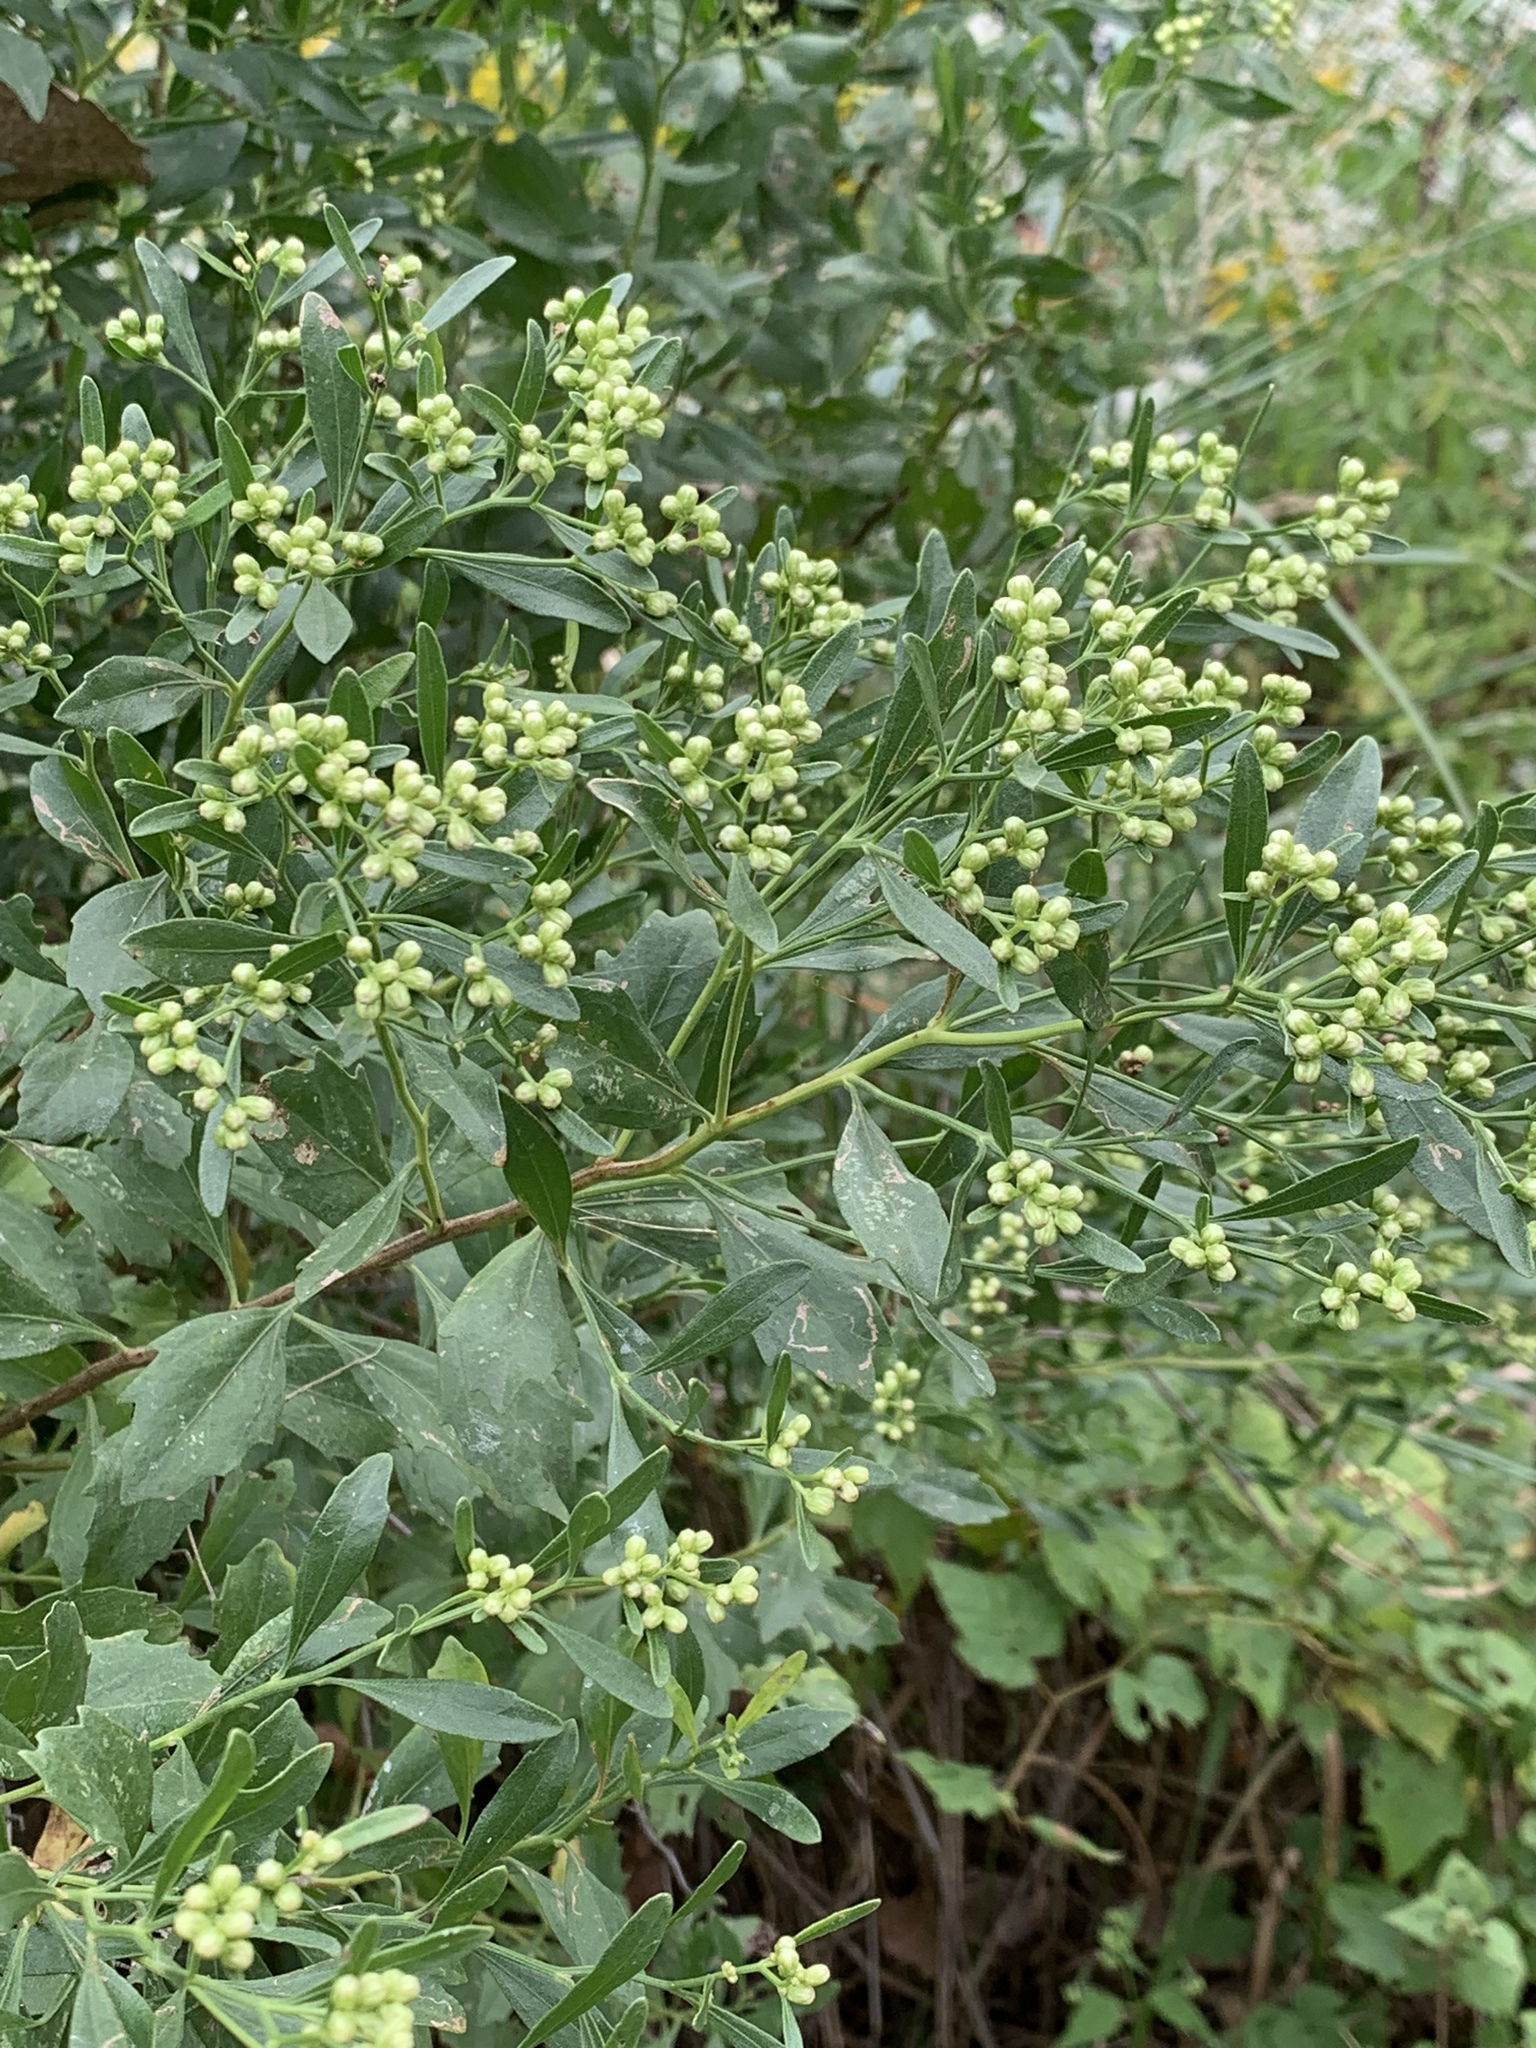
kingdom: Plantae
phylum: Tracheophyta
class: Magnoliopsida
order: Asterales
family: Asteraceae
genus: Baccharis
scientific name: Baccharis halimifolia
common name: Eastern baccharis
